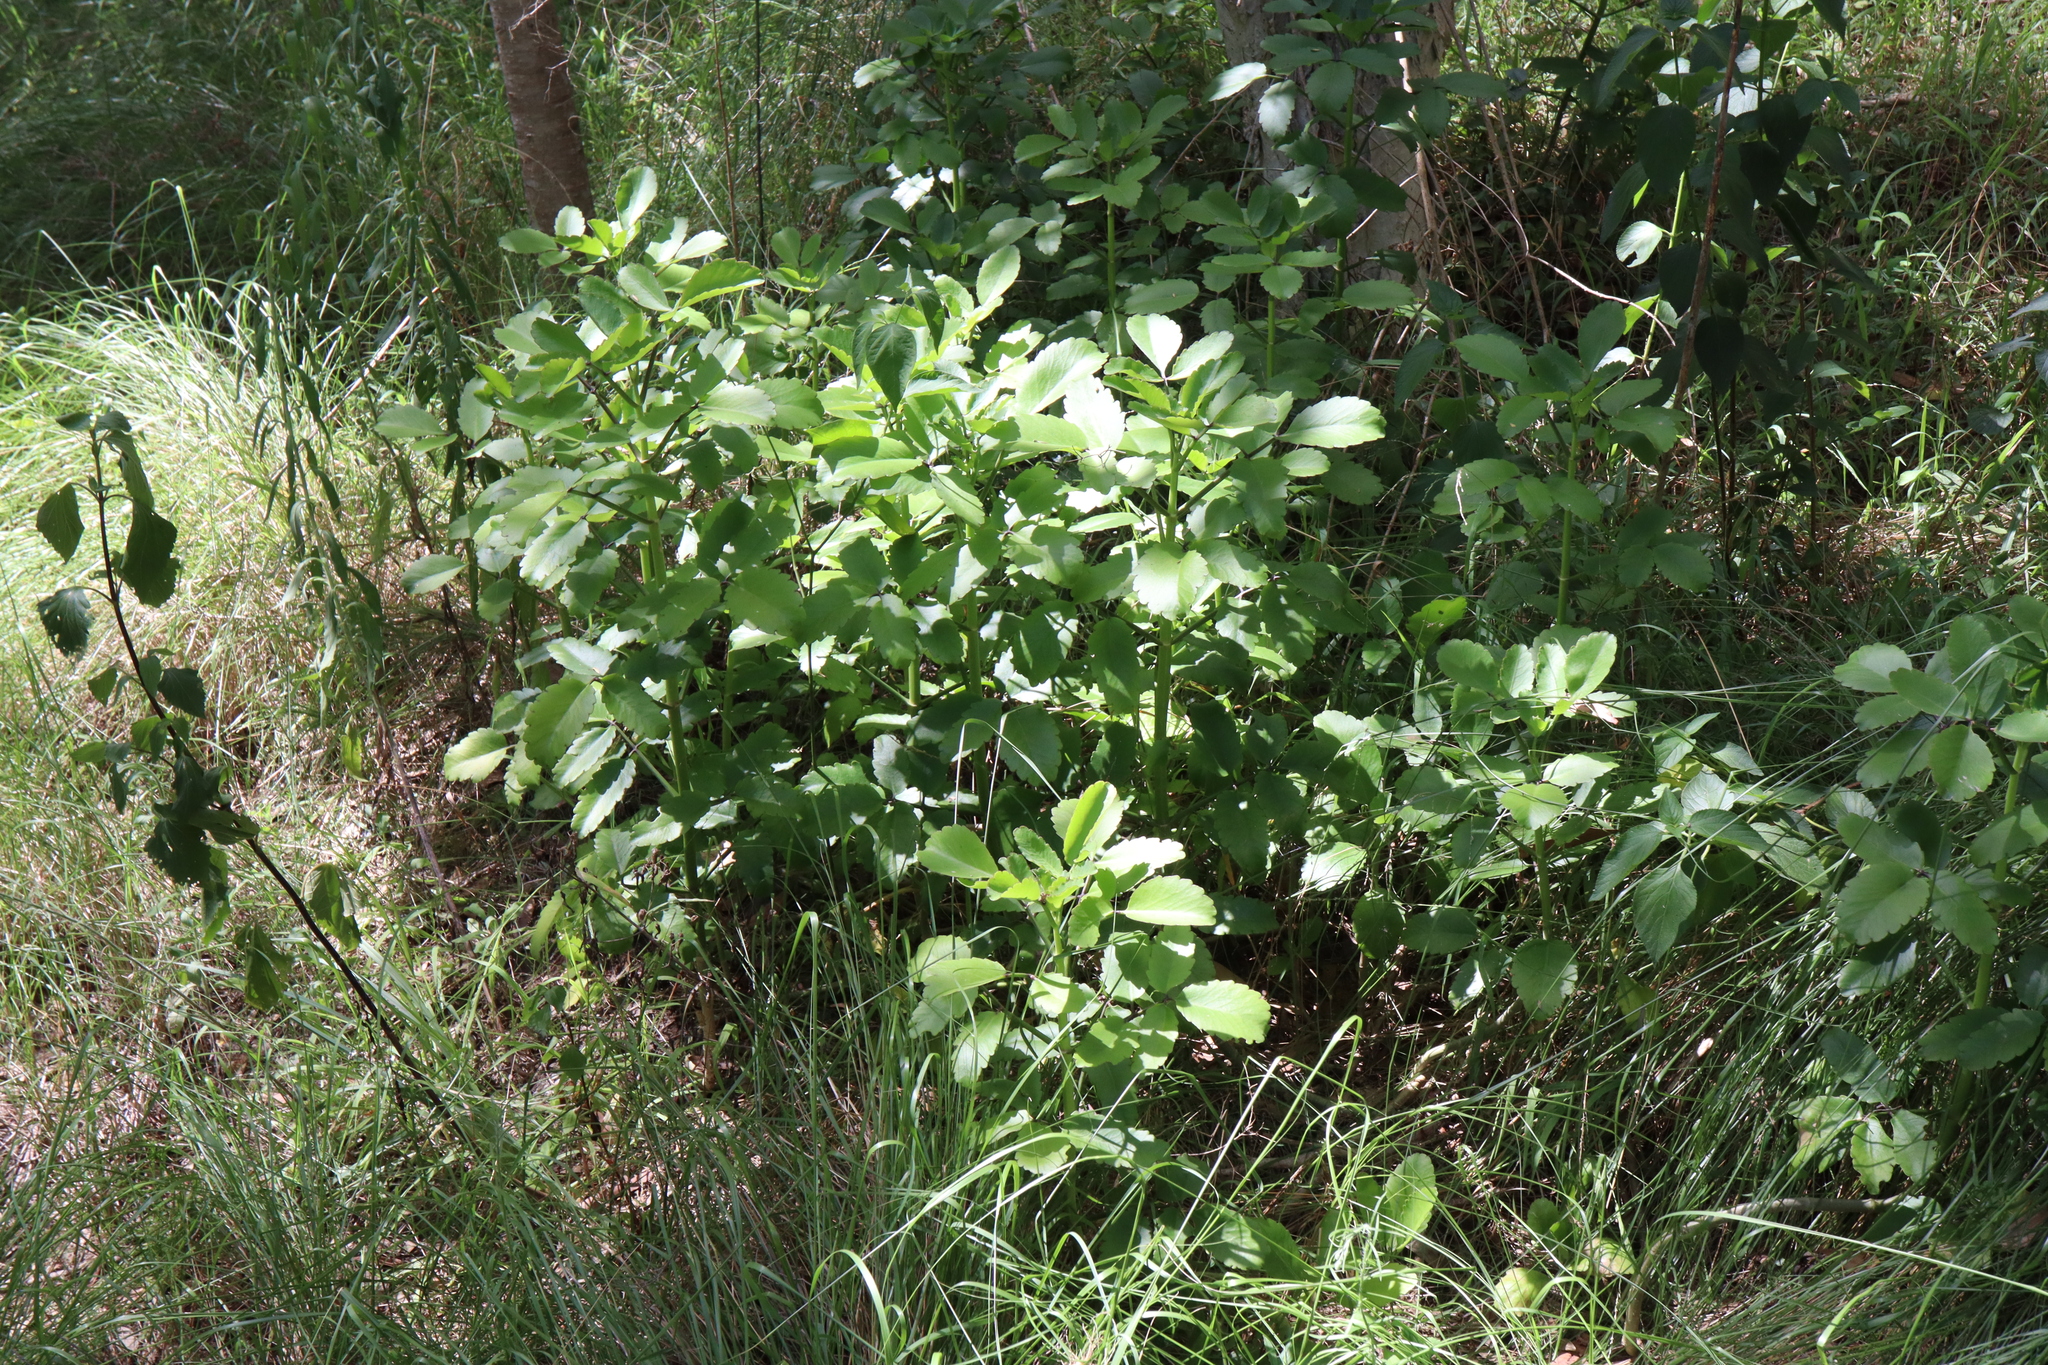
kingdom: Plantae
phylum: Tracheophyta
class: Magnoliopsida
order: Saxifragales
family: Crassulaceae
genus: Kalanchoe
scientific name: Kalanchoe pinnata
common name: Cathedral bells
